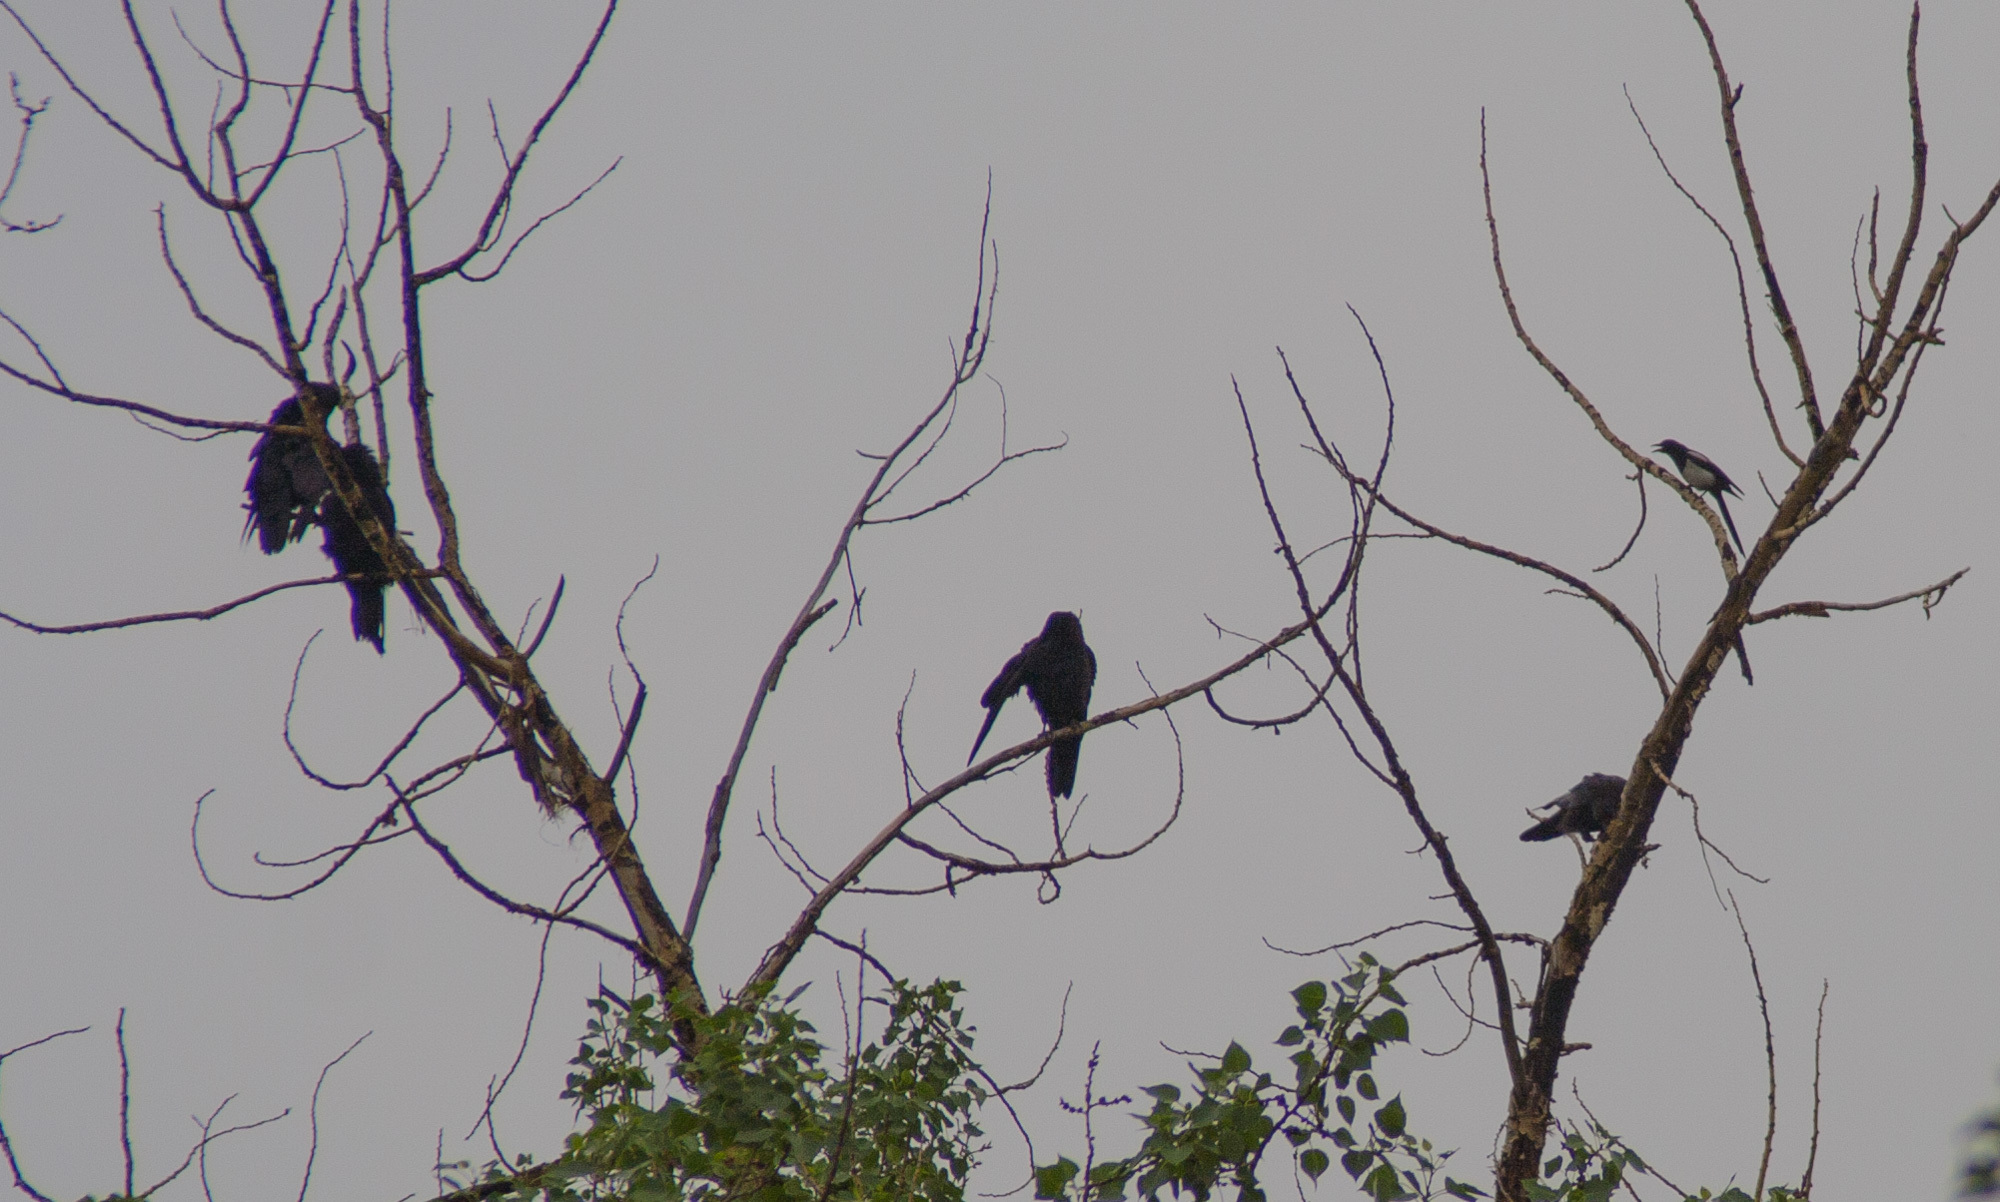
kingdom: Animalia
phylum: Chordata
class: Aves
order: Passeriformes
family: Corvidae
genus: Corvus
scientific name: Corvus corax
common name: Common raven
